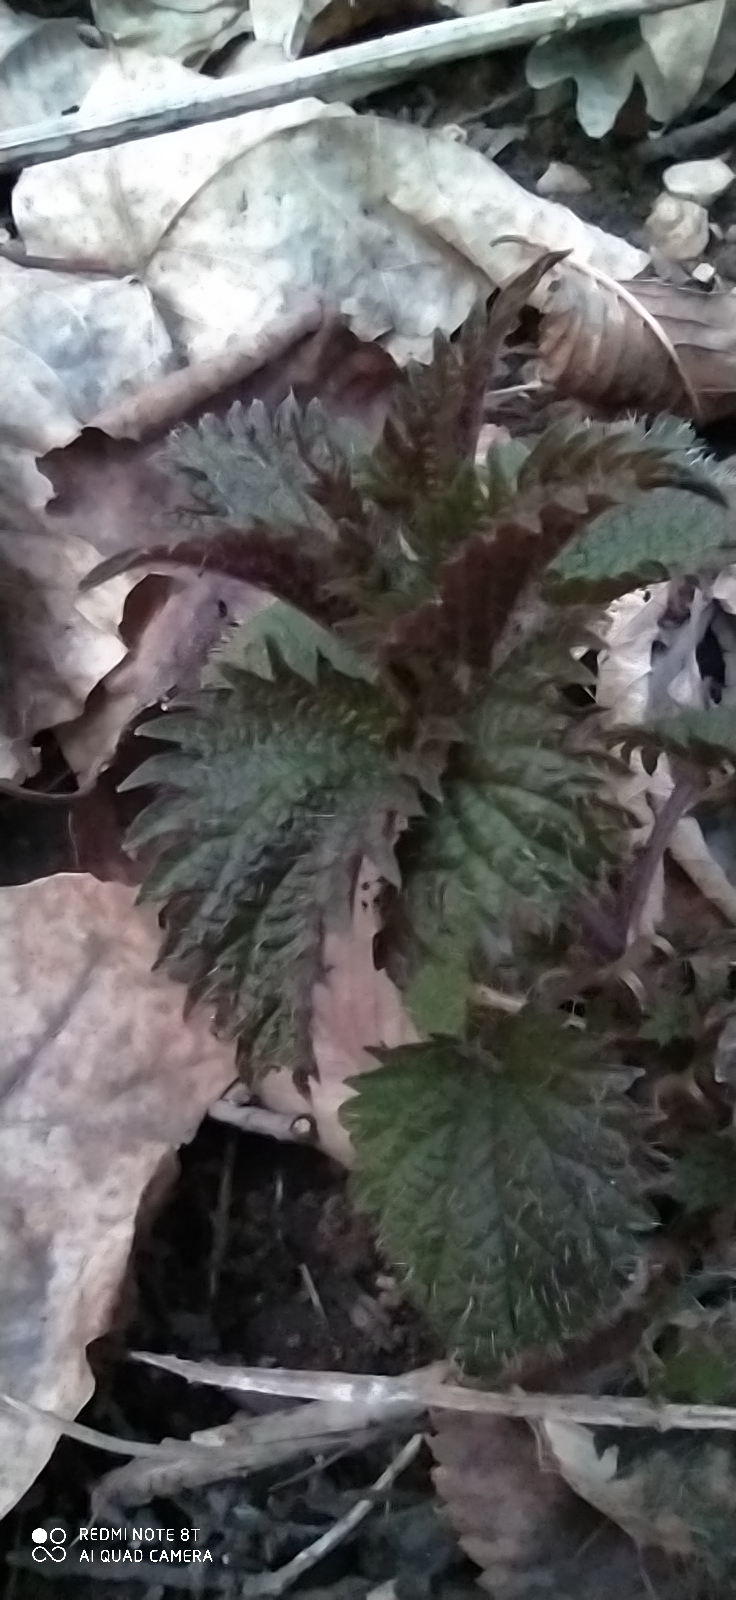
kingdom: Plantae
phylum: Tracheophyta
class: Magnoliopsida
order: Rosales
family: Urticaceae
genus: Urtica
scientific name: Urtica dioica
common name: Common nettle
